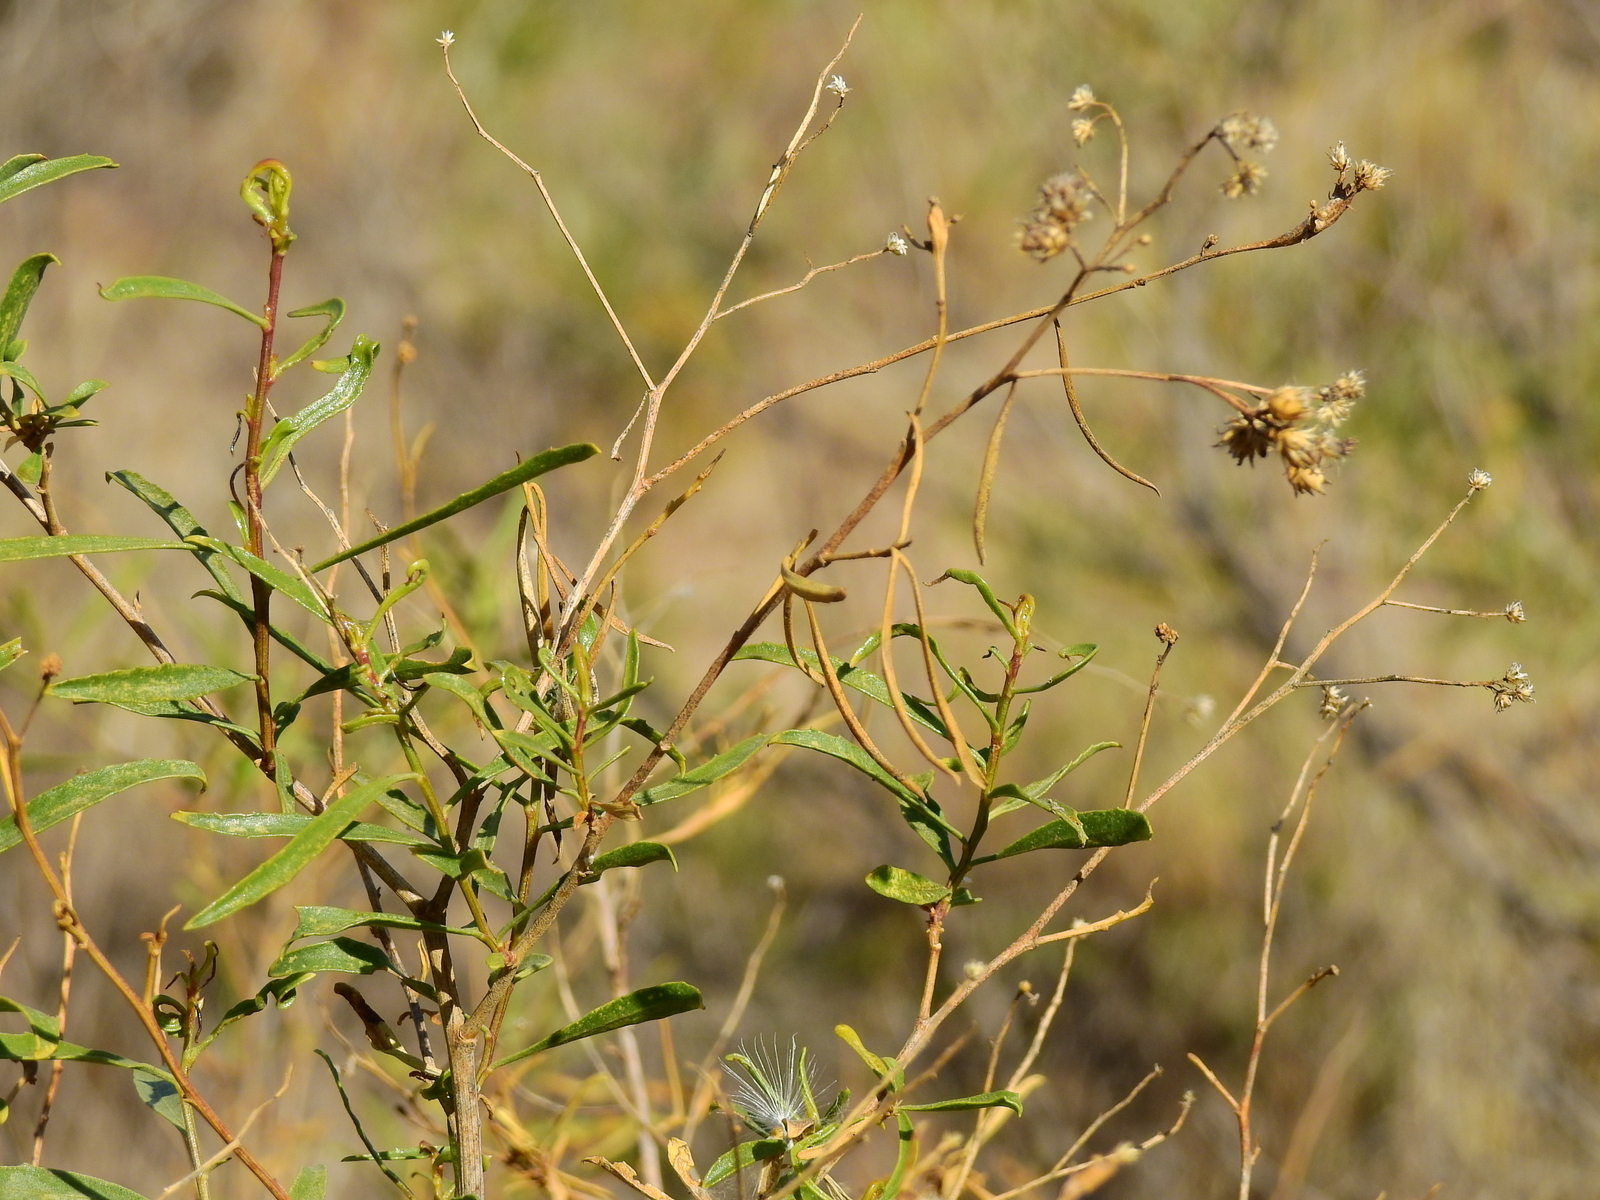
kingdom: Plantae
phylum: Tracheophyta
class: Magnoliopsida
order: Asterales
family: Asteraceae
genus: Baccharis
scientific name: Baccharis salicifolia
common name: Sticky baccharis
